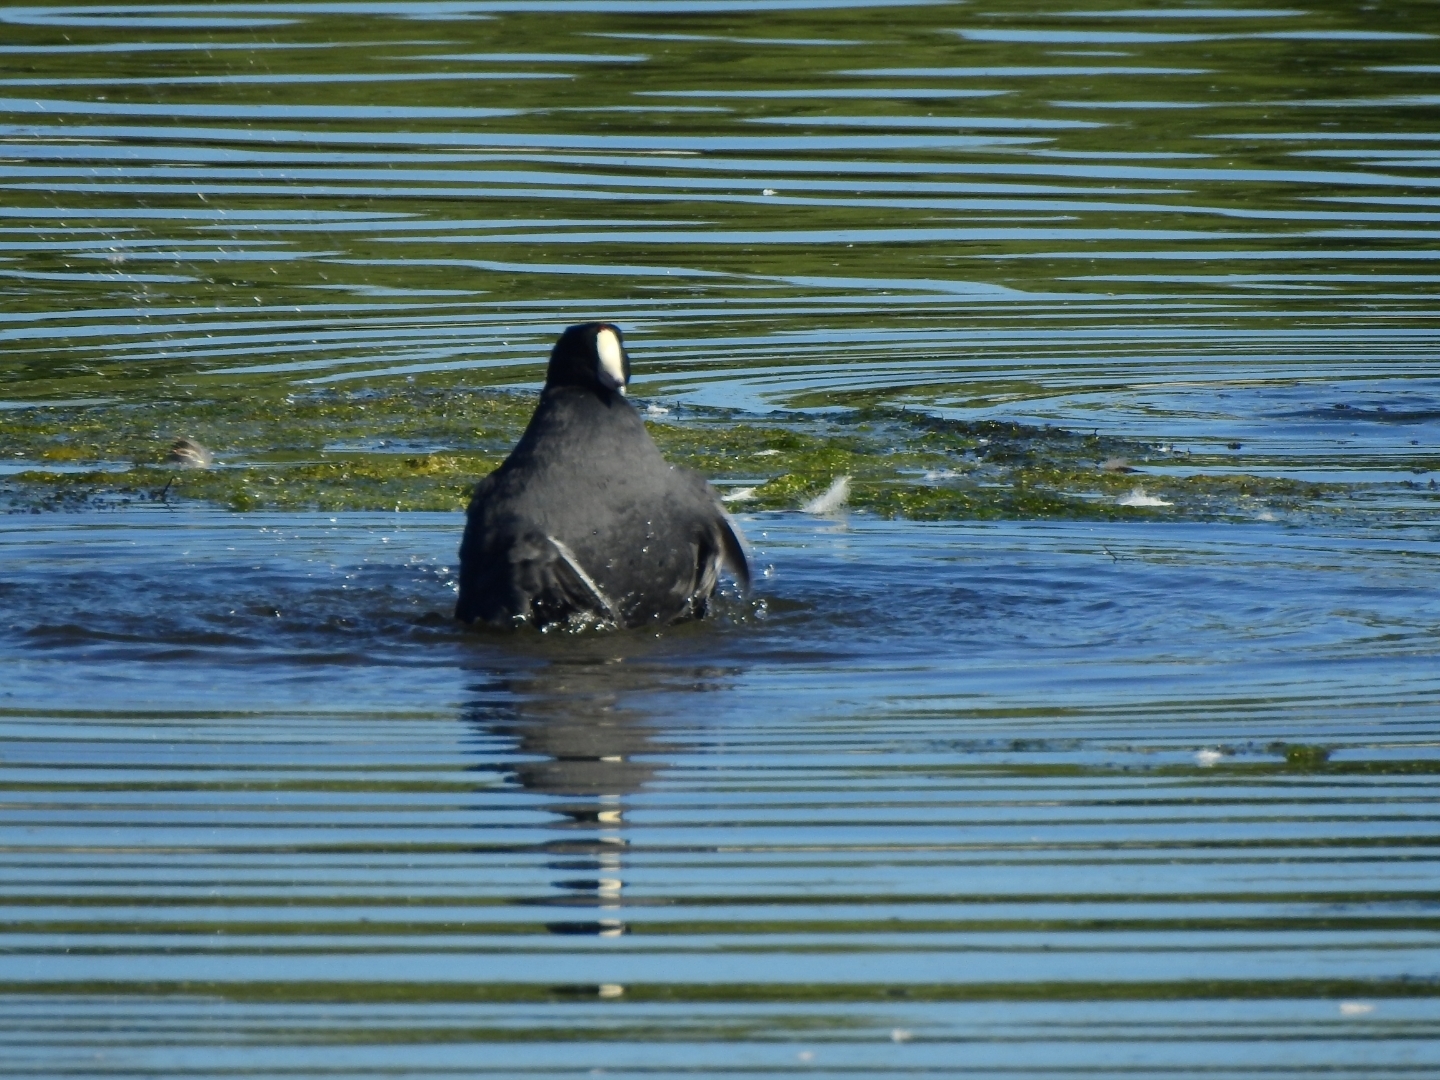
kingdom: Animalia
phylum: Chordata
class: Aves
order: Gruiformes
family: Rallidae
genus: Fulica
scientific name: Fulica americana
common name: American coot
